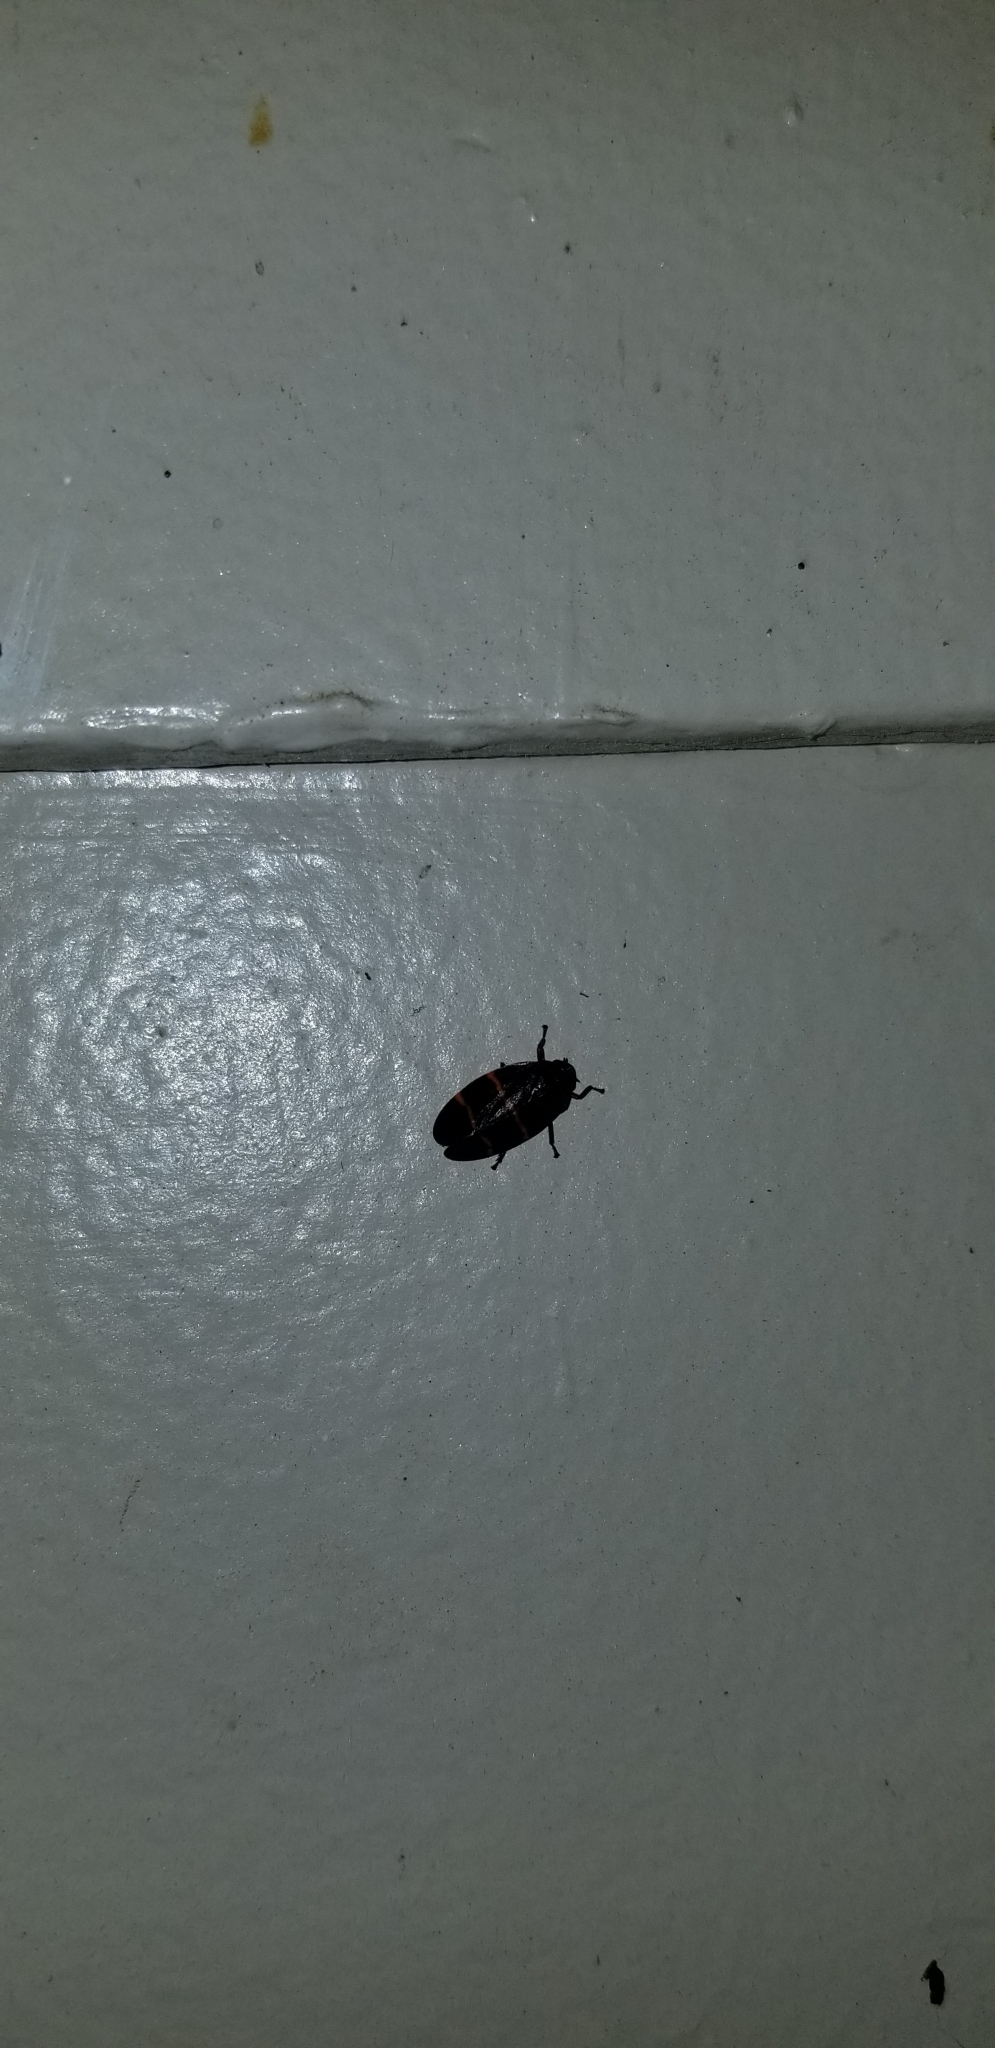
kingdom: Animalia
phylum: Arthropoda
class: Insecta
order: Hemiptera
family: Cercopidae
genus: Prosapia
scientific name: Prosapia bicincta
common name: Twolined spittlebug
